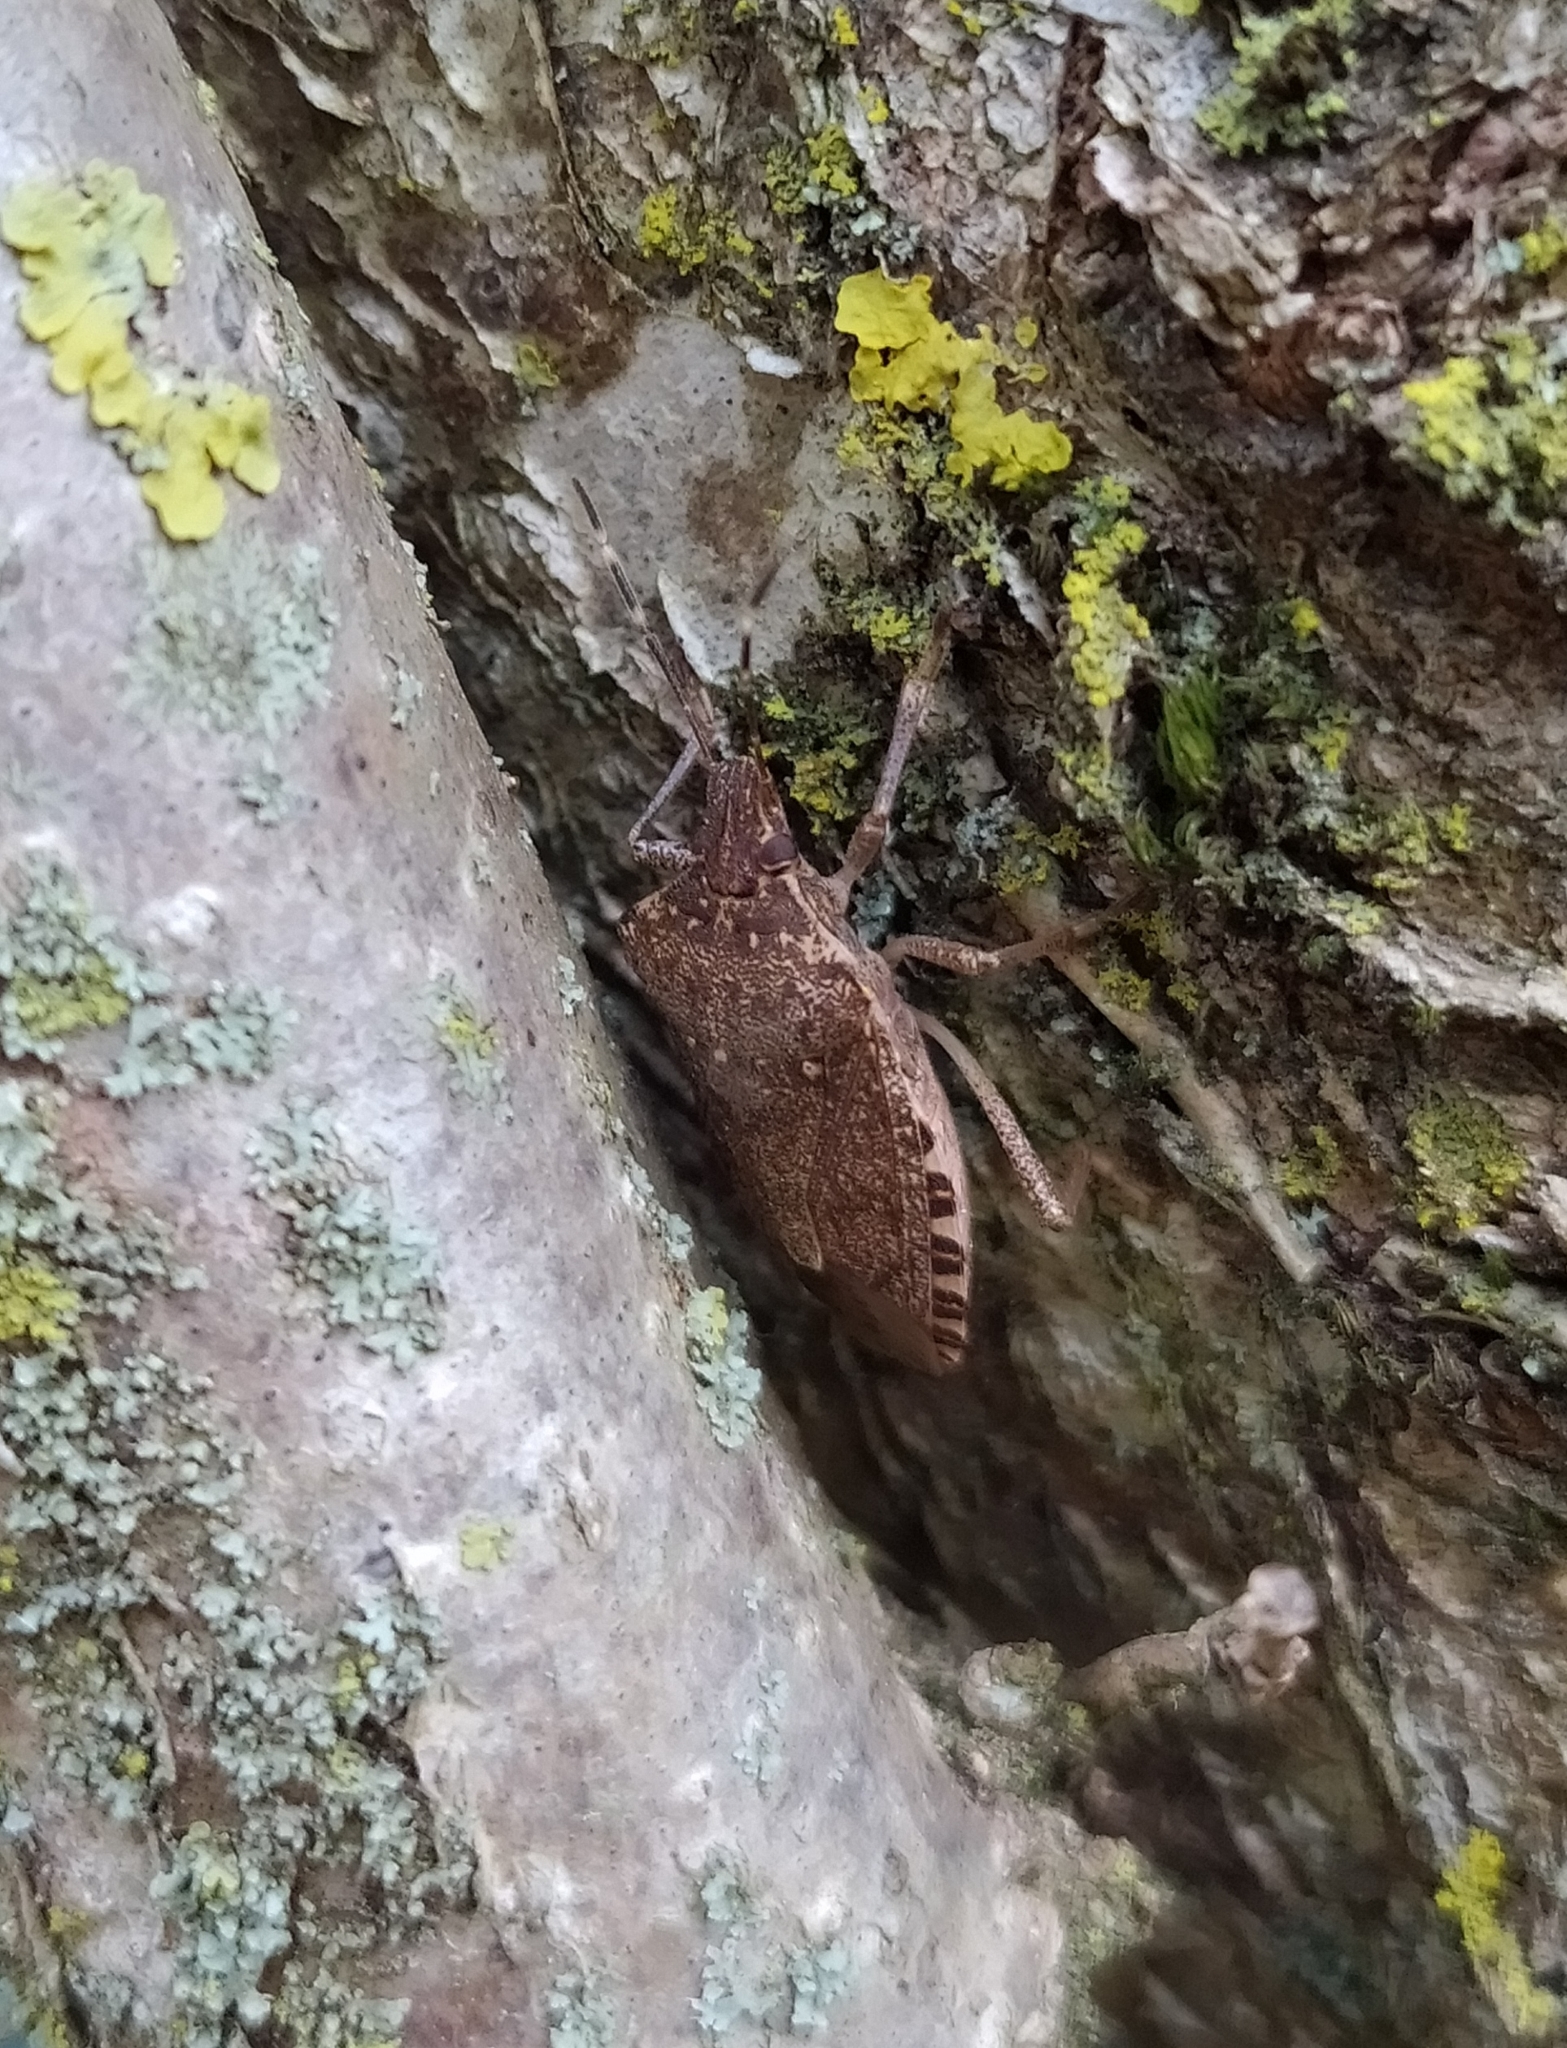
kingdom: Animalia
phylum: Arthropoda
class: Insecta
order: Hemiptera
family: Pentatomidae
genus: Halyomorpha
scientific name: Halyomorpha halys
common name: Brown marmorated stink bug
